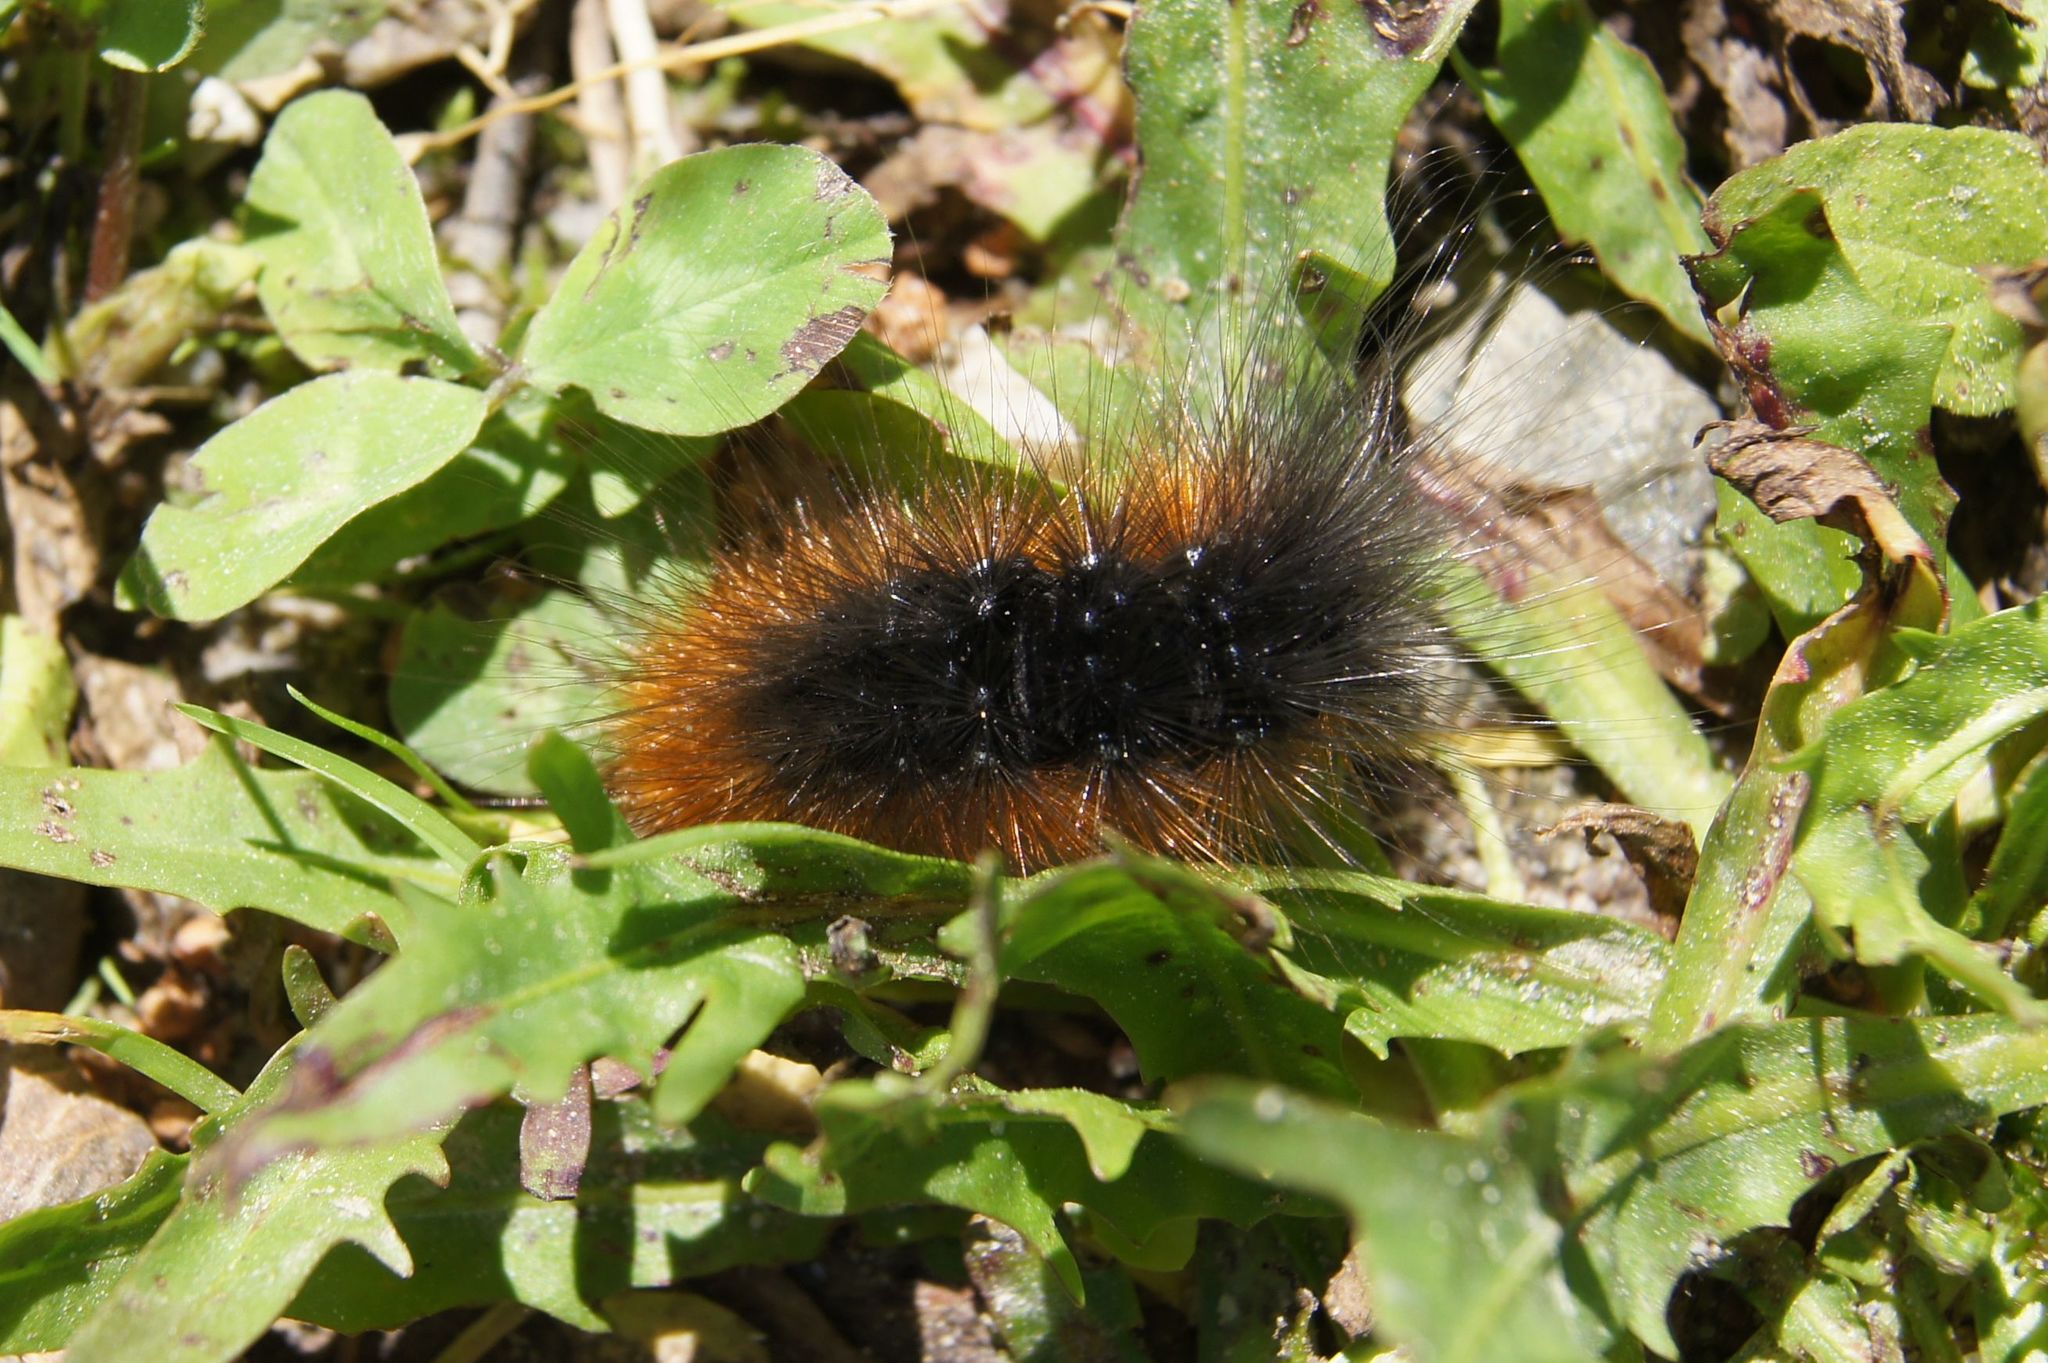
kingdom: Animalia
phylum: Arthropoda
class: Insecta
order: Lepidoptera
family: Erebidae
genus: Arctia
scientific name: Arctia caja
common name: Garden tiger
